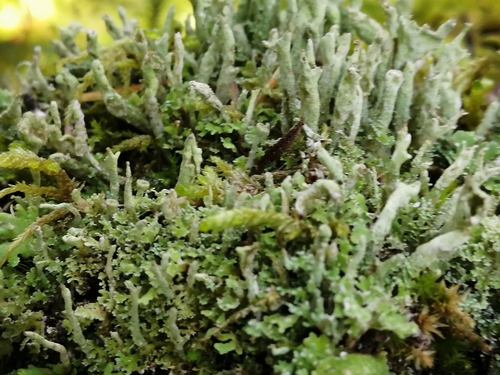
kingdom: Fungi
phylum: Ascomycota
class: Lecanoromycetes
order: Lecanorales
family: Cladoniaceae
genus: Cladonia
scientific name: Cladonia coniocraea
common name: Common powderhorn
